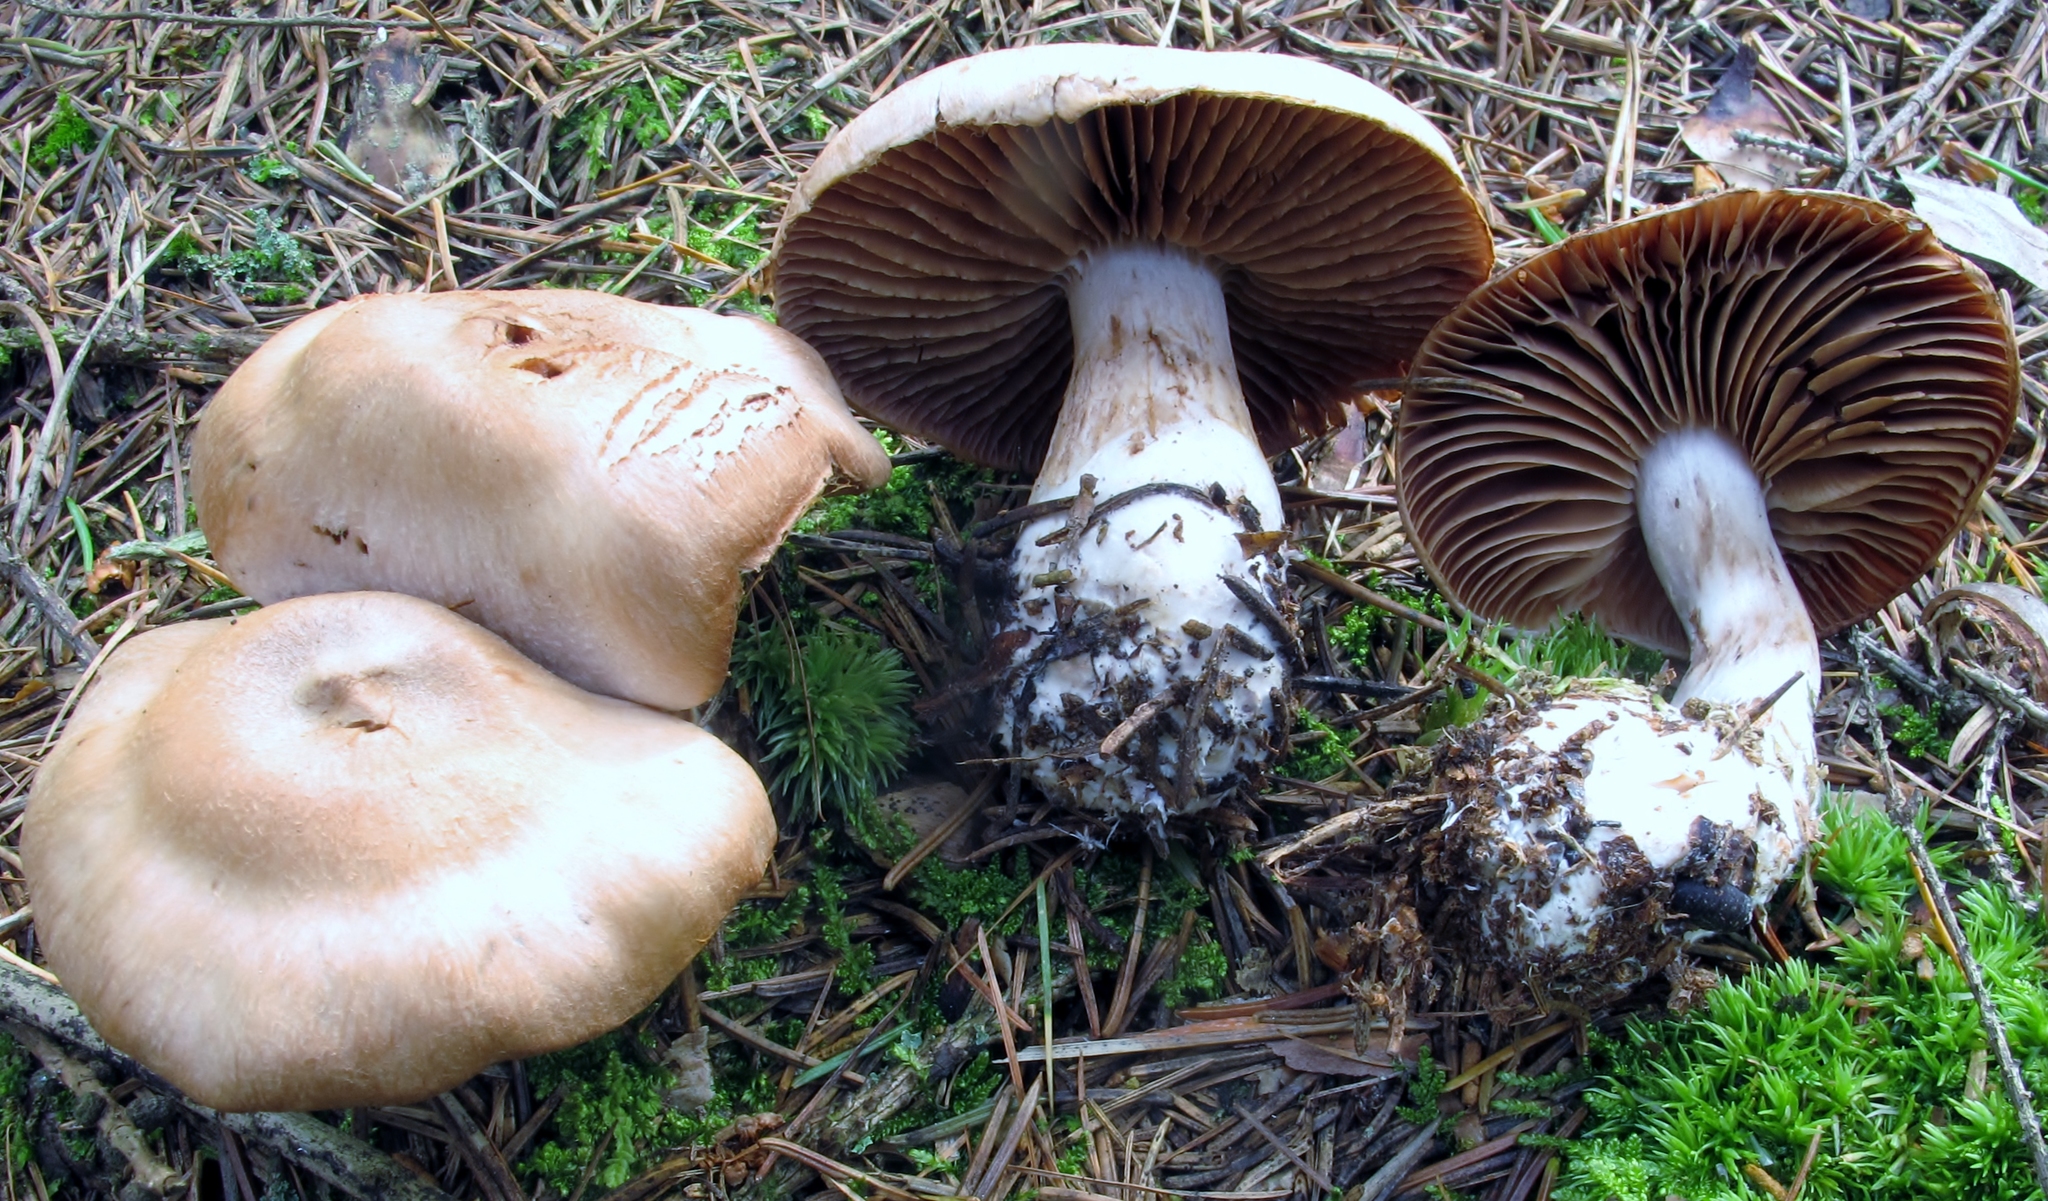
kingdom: Fungi
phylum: Basidiomycota
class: Agaricomycetes
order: Agaricales
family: Cortinariaceae
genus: Cortinarius
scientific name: Cortinarius malachius
